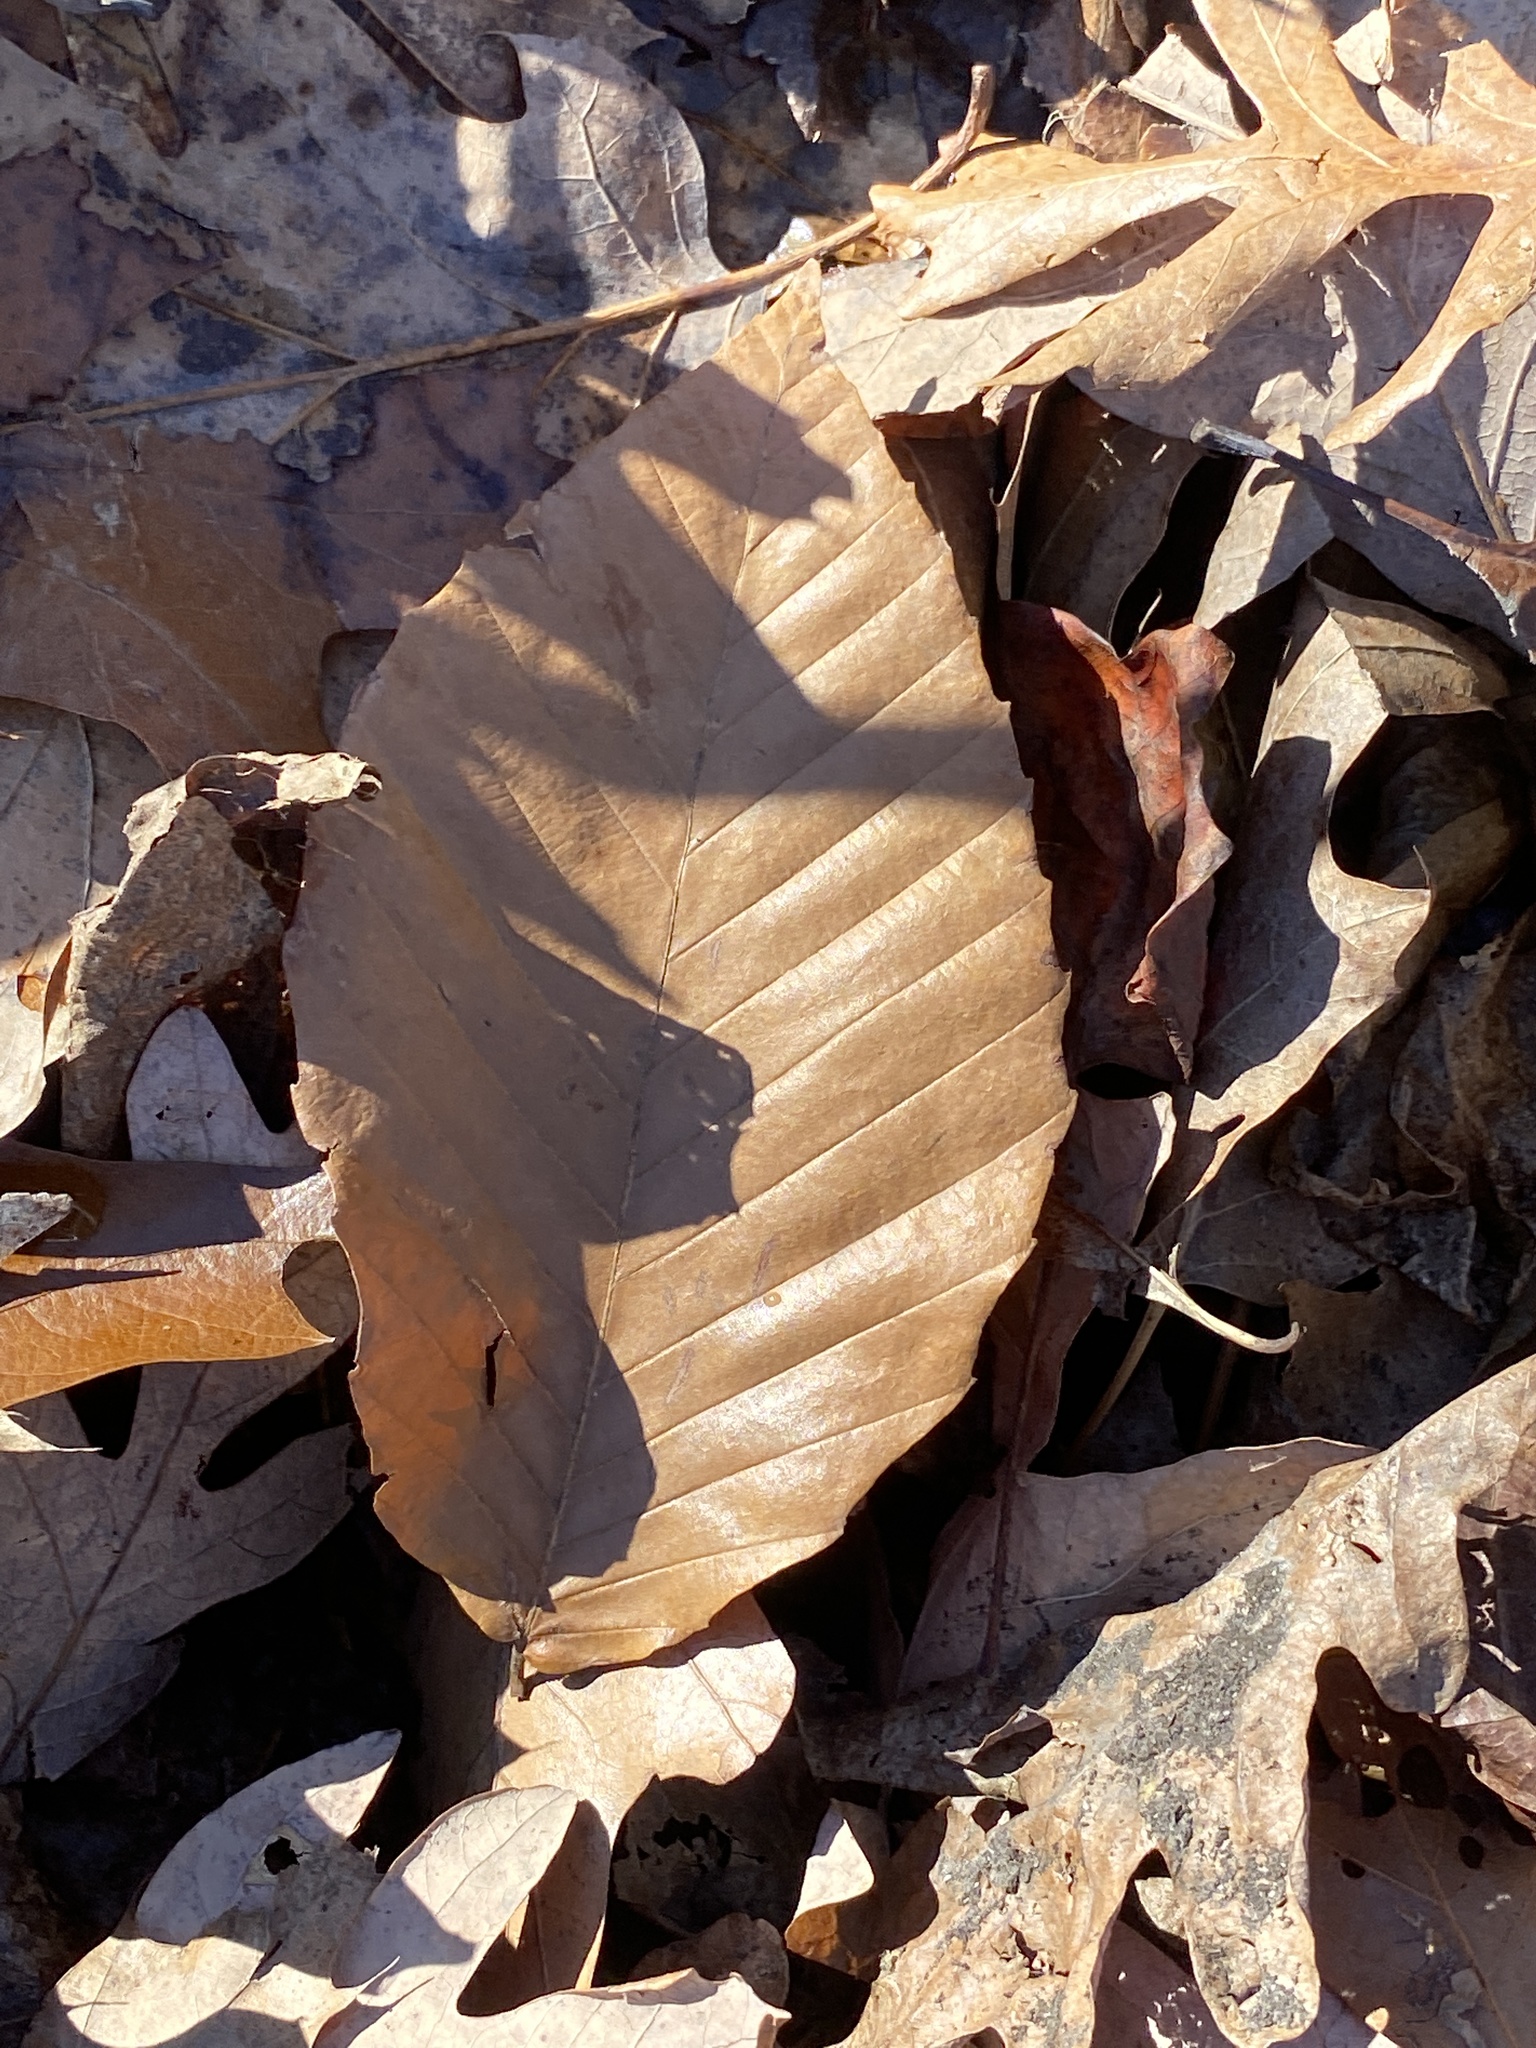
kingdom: Plantae
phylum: Tracheophyta
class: Magnoliopsida
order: Fagales
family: Fagaceae
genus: Fagus
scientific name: Fagus grandifolia
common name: American beech
